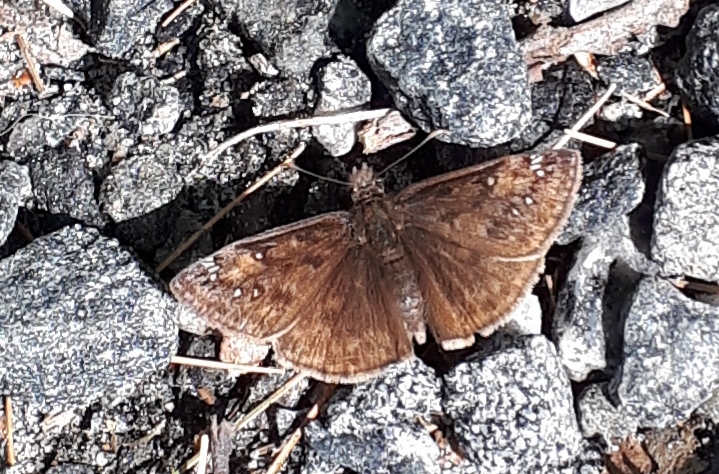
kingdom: Animalia
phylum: Arthropoda
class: Insecta
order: Lepidoptera
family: Hesperiidae
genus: Erynnis
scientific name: Erynnis juvenalis
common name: Juvenal's duskywing
